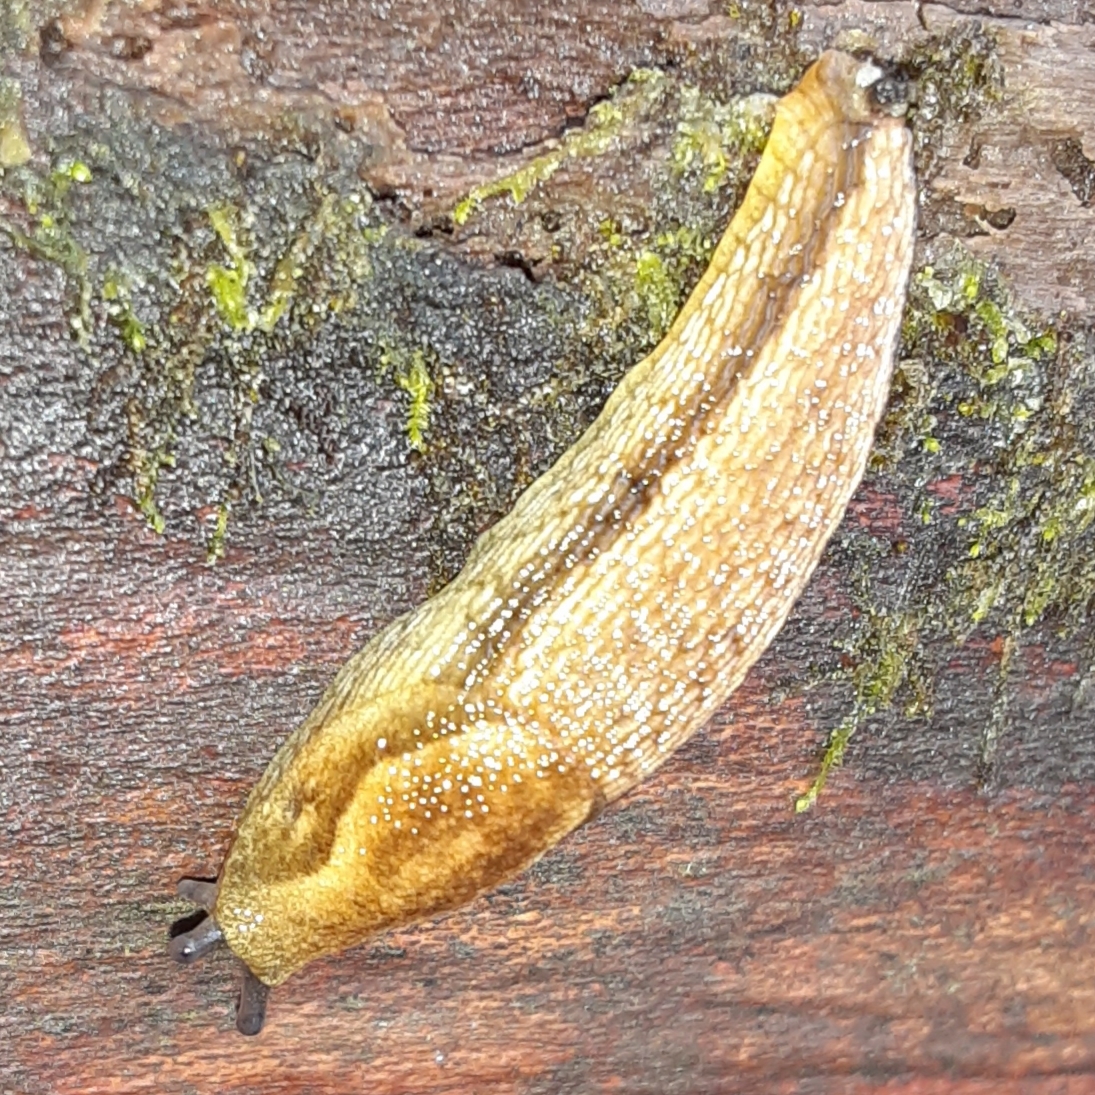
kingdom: Animalia
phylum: Mollusca
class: Gastropoda
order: Stylommatophora
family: Arionidae
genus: Arion
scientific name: Arion subfuscus
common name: Dusky arion
